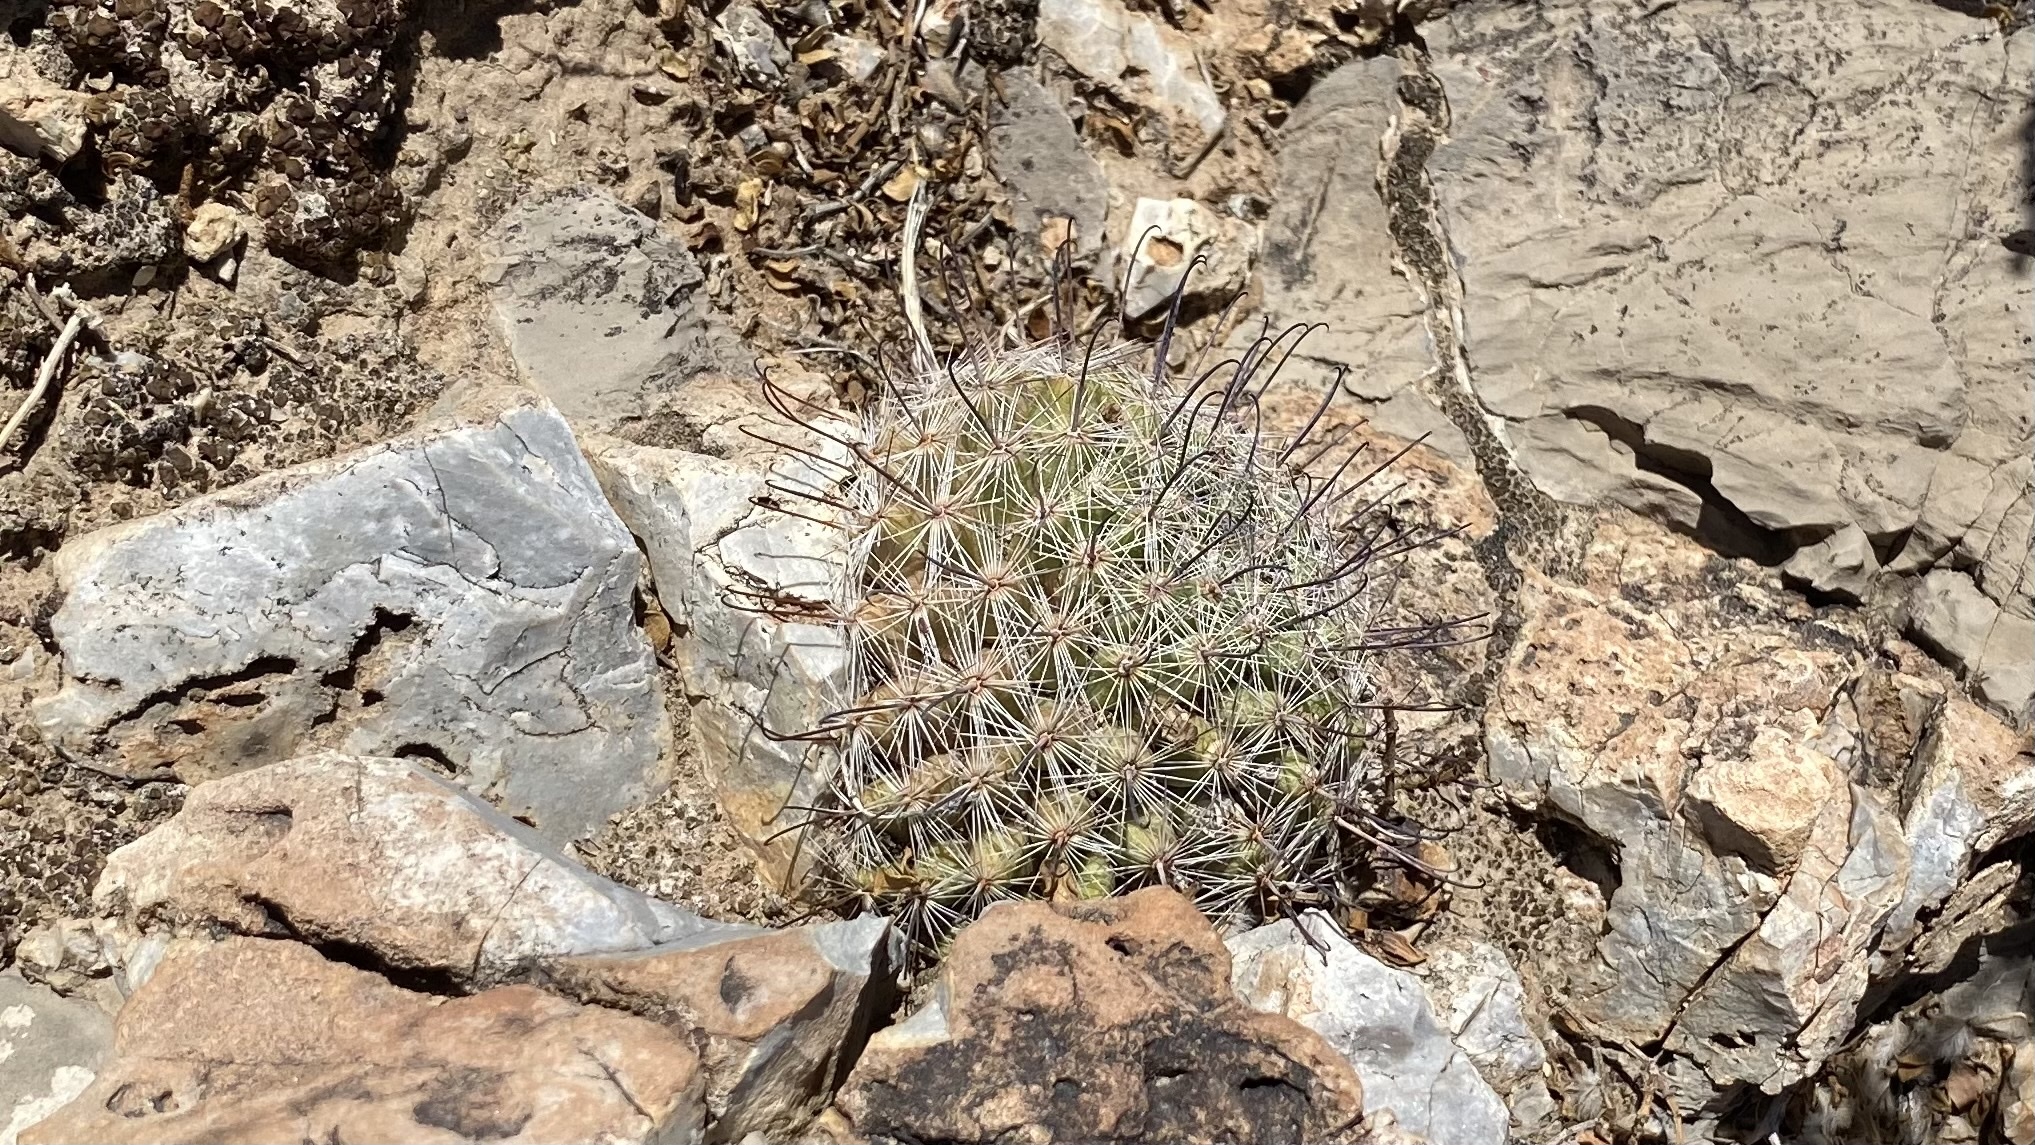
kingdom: Plantae
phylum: Tracheophyta
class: Magnoliopsida
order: Caryophyllales
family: Cactaceae
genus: Cochemiea
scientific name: Cochemiea grahamii
